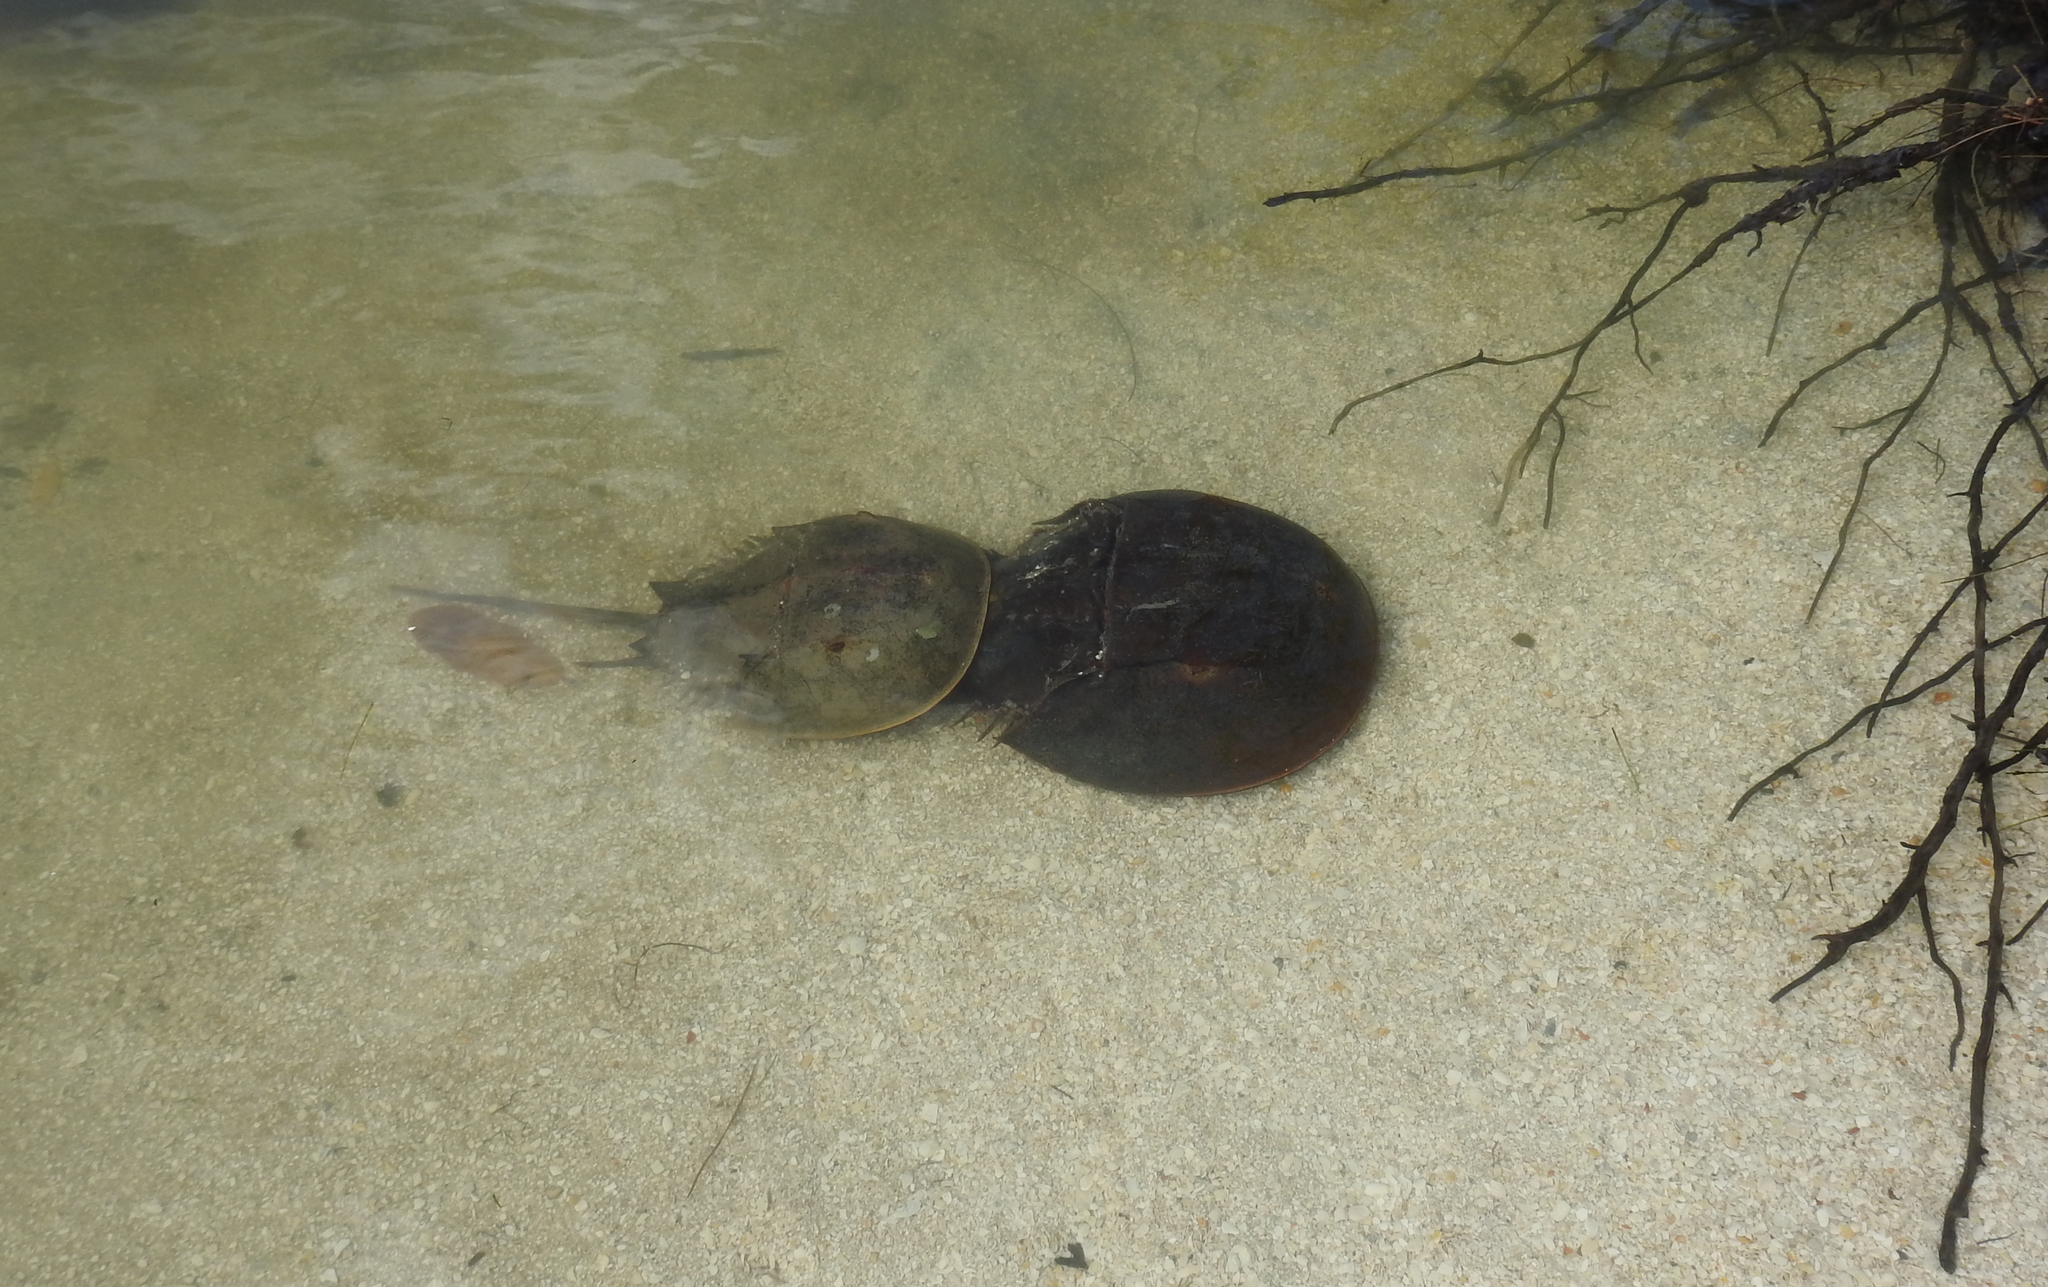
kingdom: Animalia
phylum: Arthropoda
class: Merostomata
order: Xiphosurida
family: Limulidae
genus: Limulus
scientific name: Limulus polyphemus
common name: Horseshoe crab
